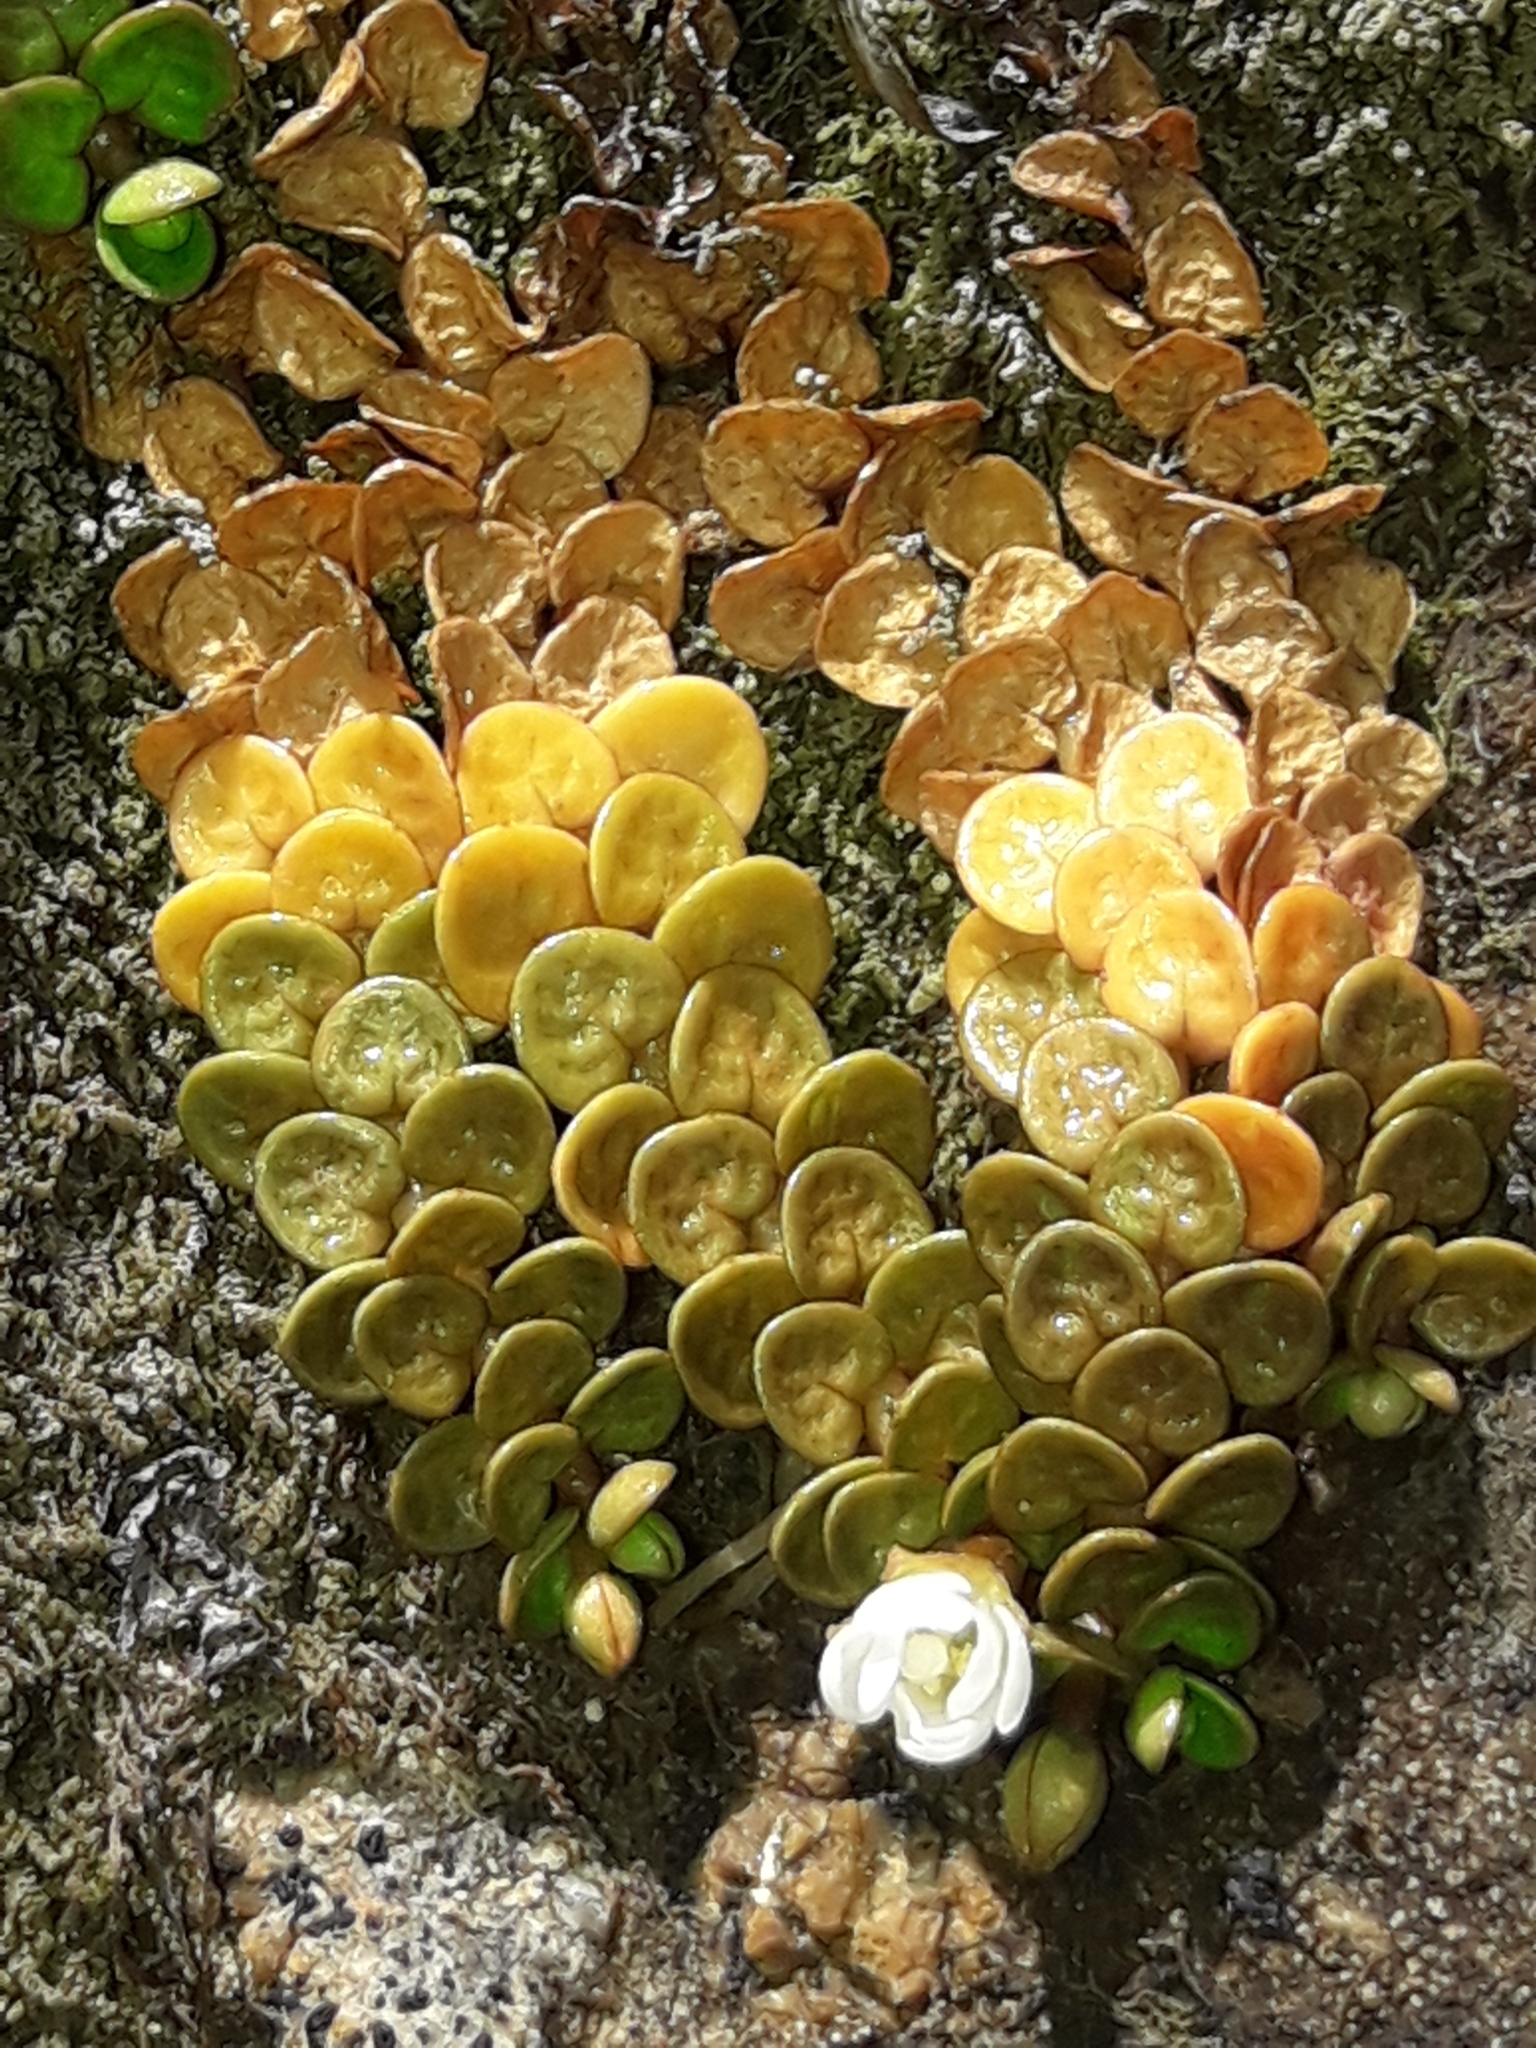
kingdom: Plantae
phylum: Tracheophyta
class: Magnoliopsida
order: Myrtales
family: Onagraceae
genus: Epilobium
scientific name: Epilobium komarovianum
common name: Bronzy willowherb
